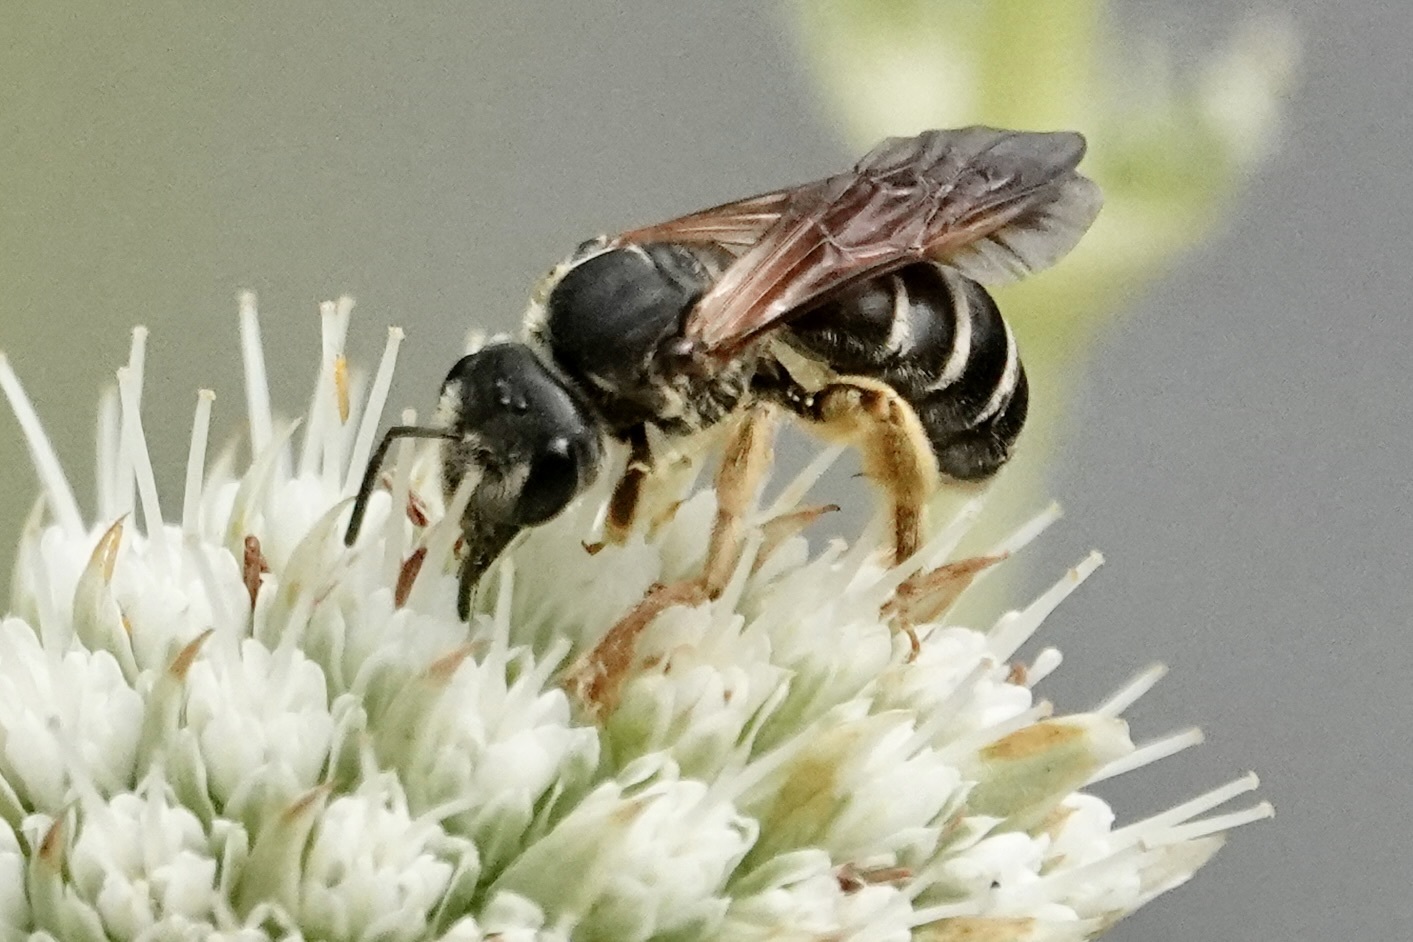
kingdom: Animalia
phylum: Arthropoda
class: Insecta
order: Hymenoptera
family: Halictidae
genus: Halictus
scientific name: Halictus parallelus
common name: Parallel-striped sweat bee
